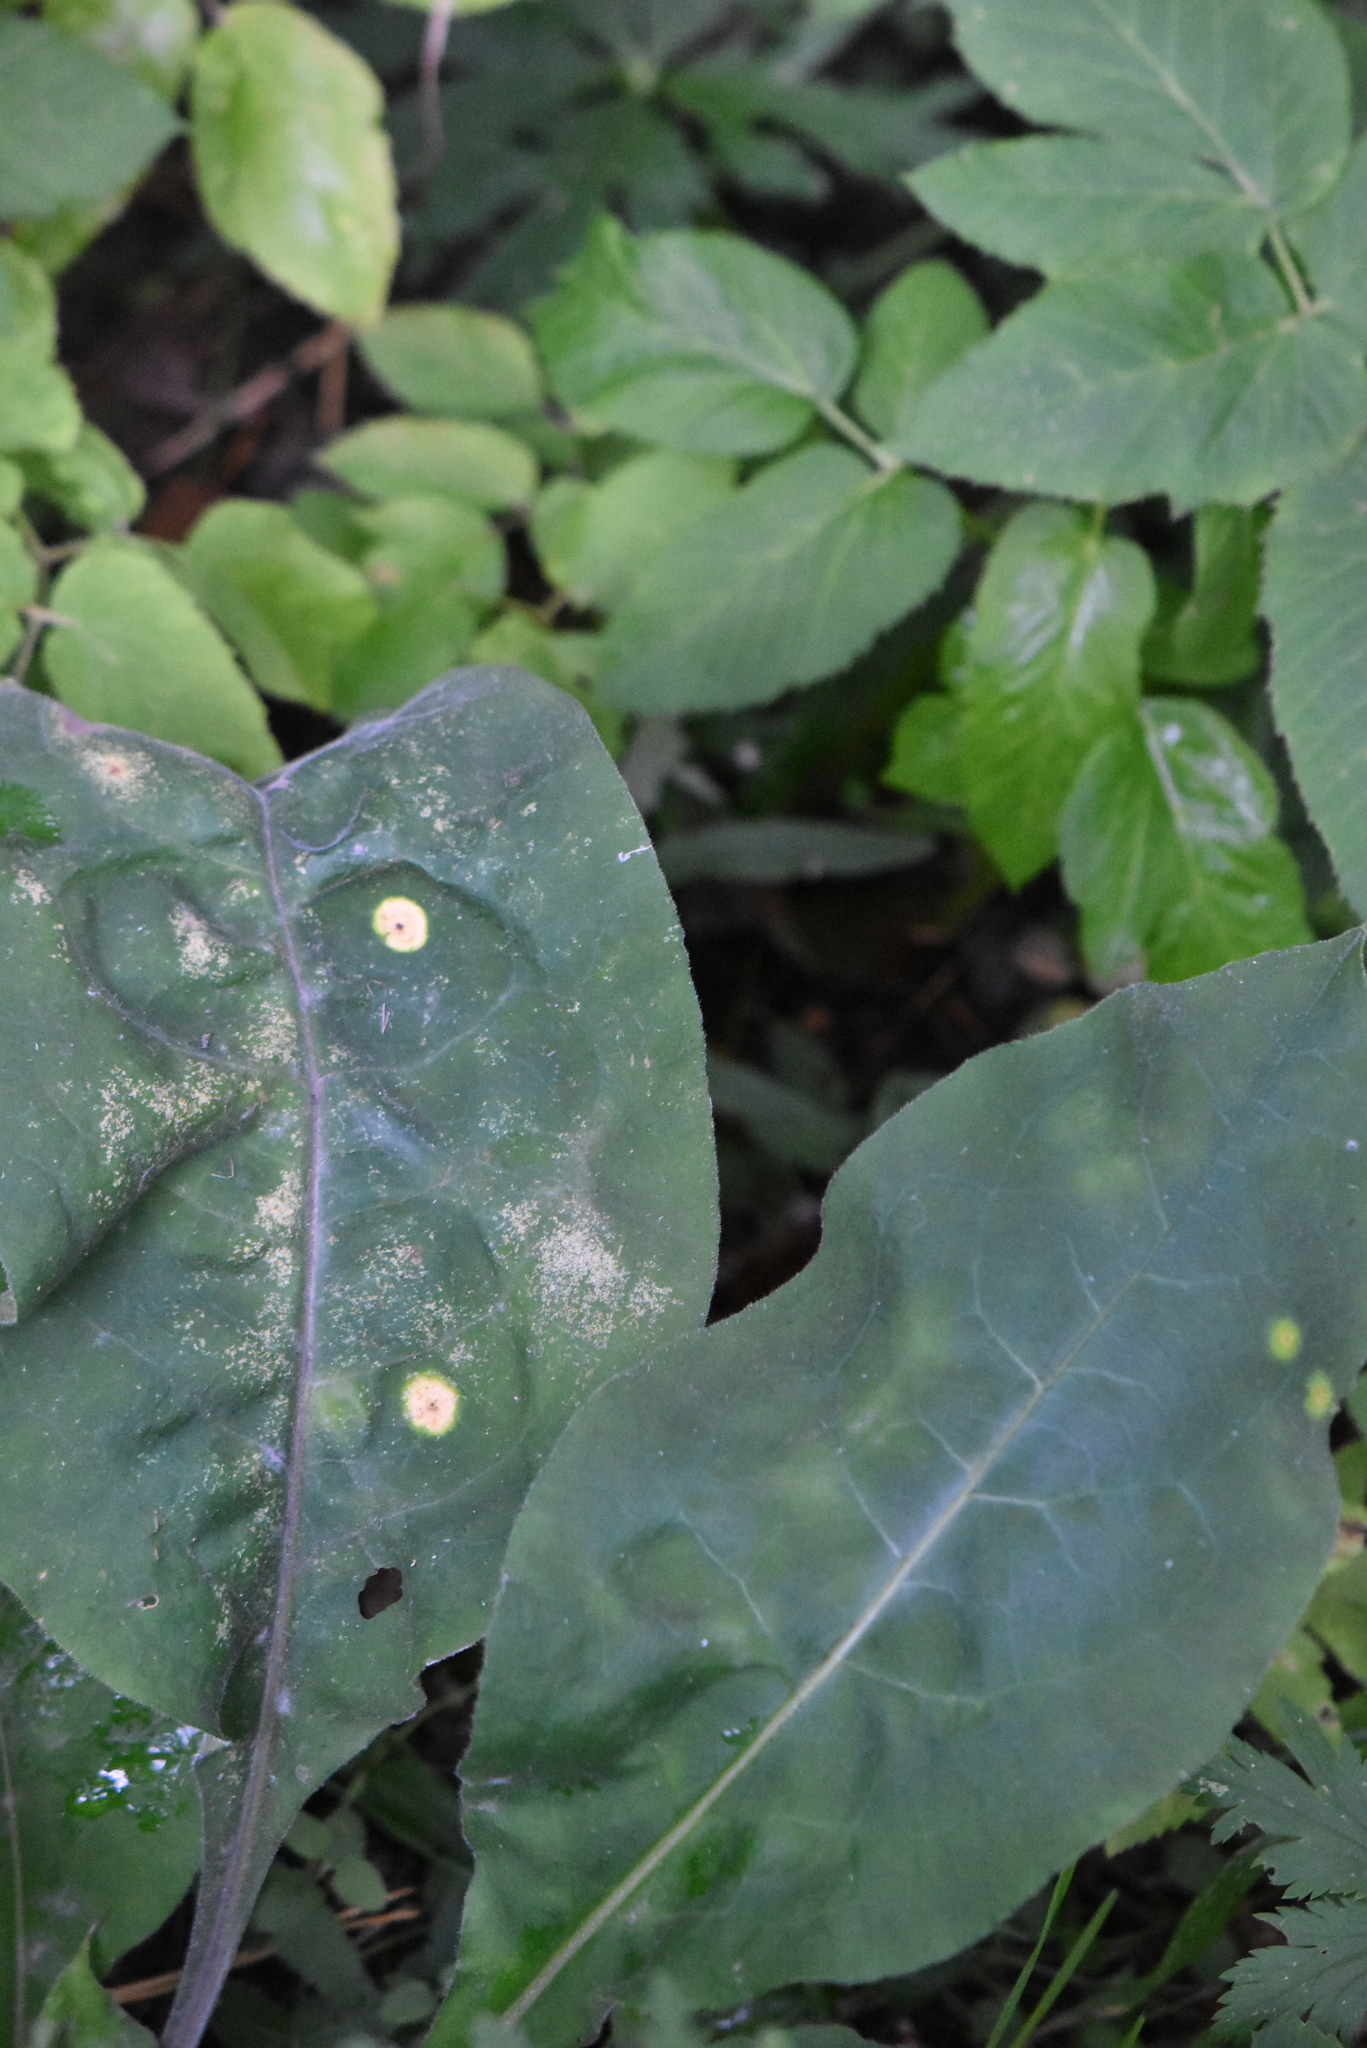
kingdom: Plantae
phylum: Tracheophyta
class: Magnoliopsida
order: Boraginales
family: Boraginaceae
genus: Pulmonaria
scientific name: Pulmonaria mollis
